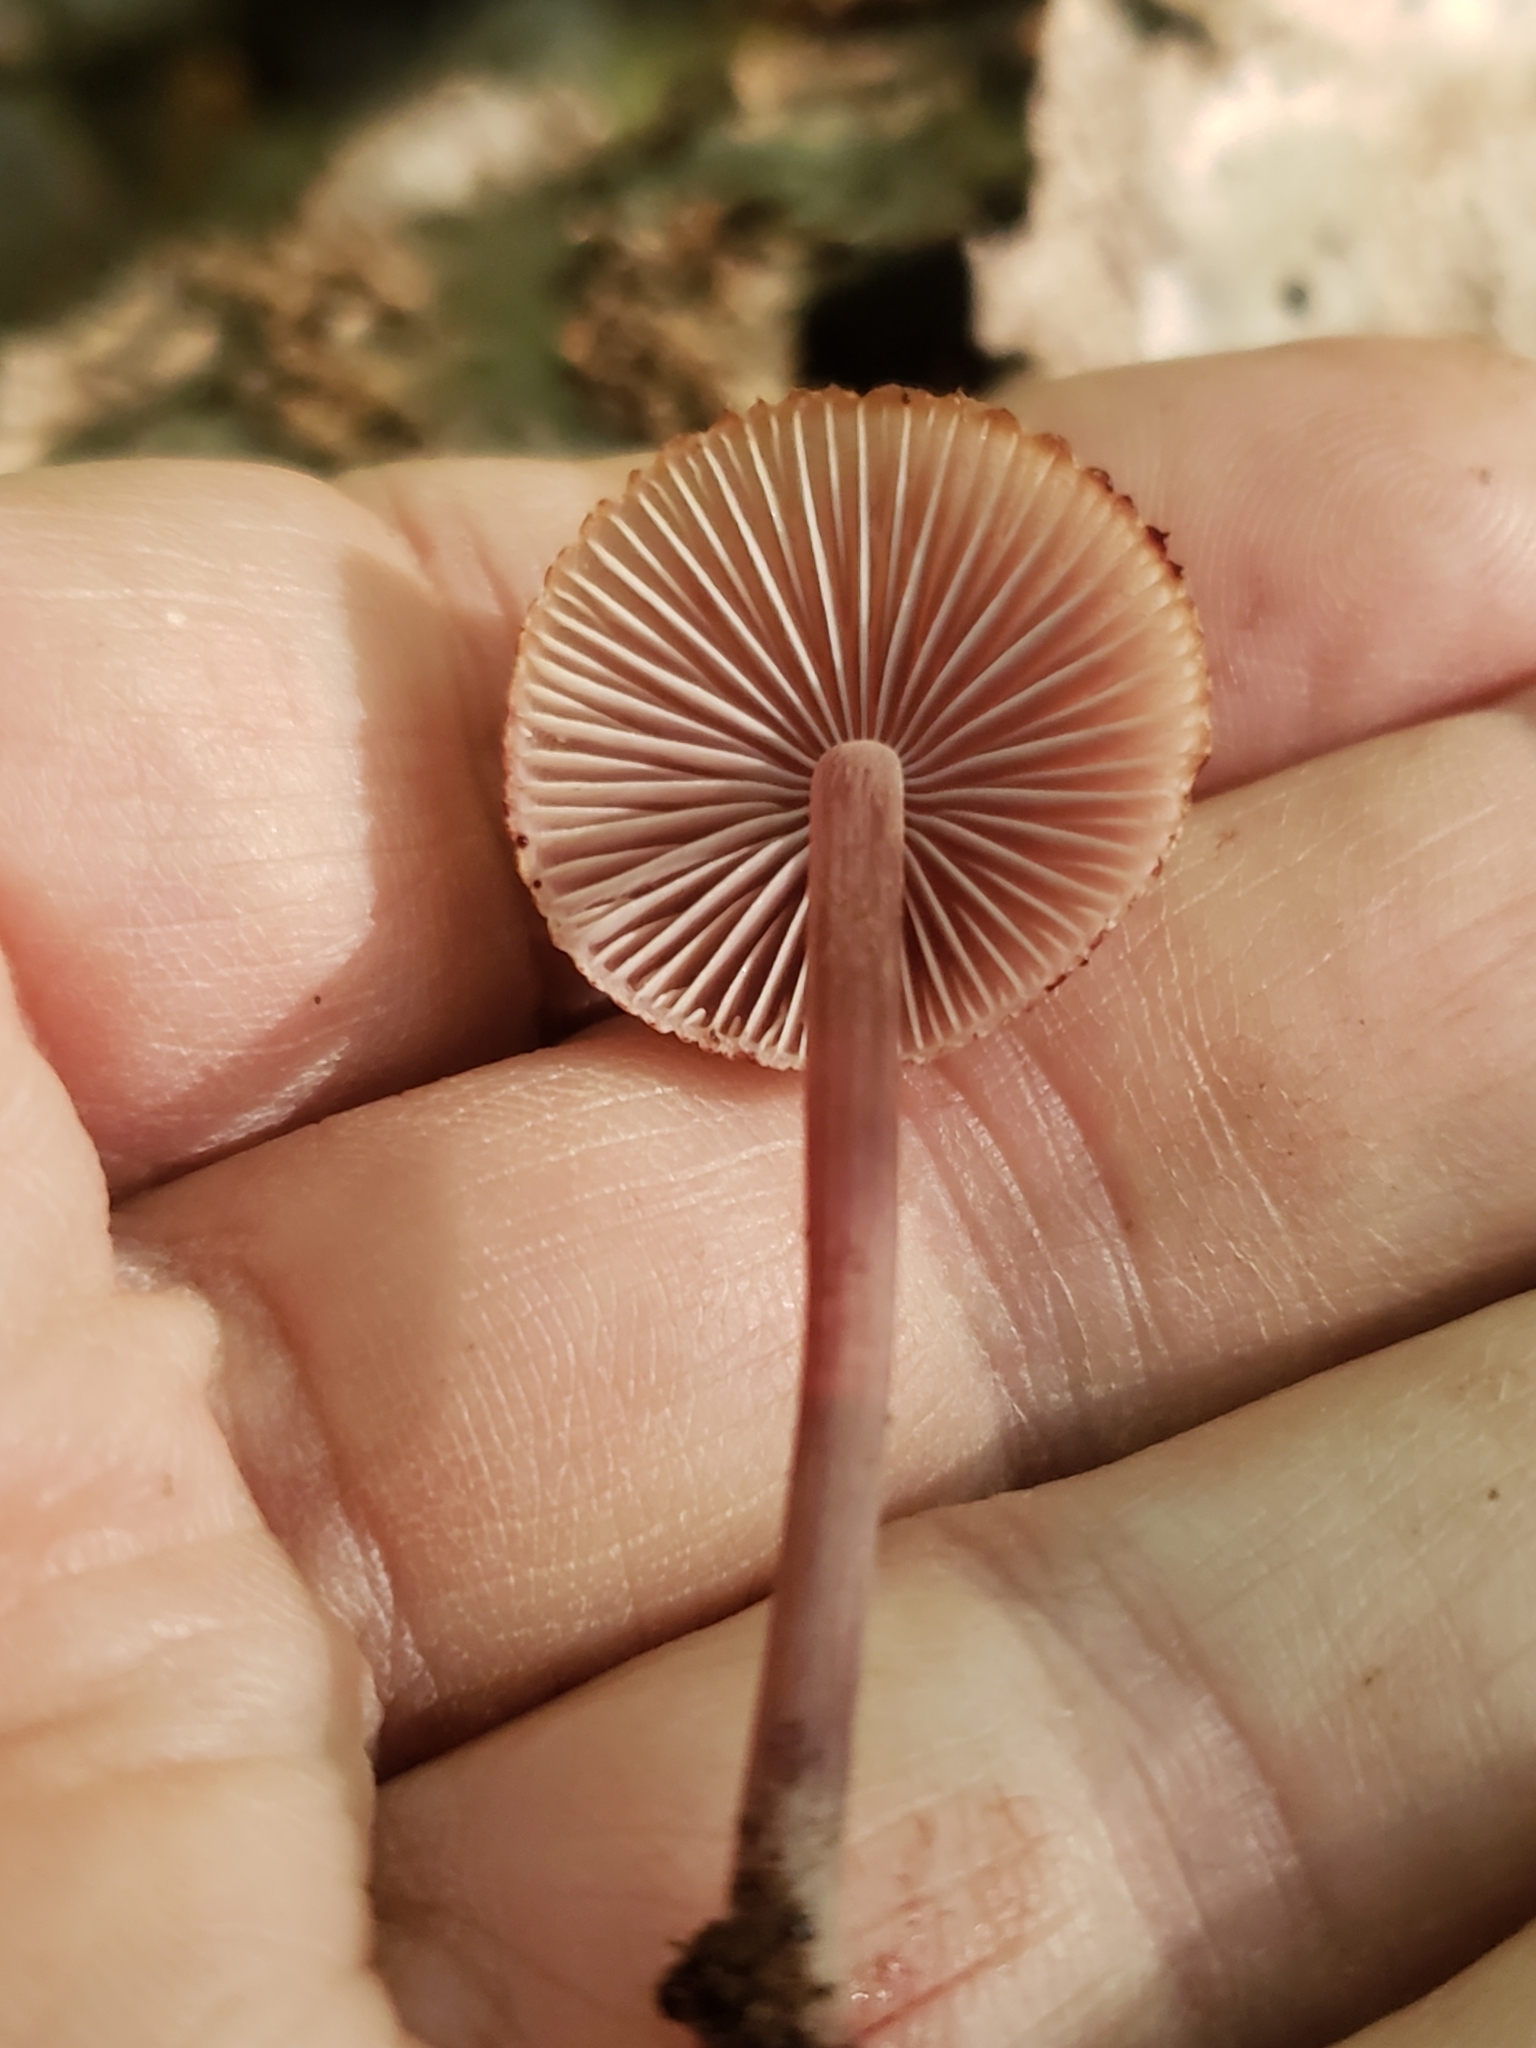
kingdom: Fungi
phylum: Basidiomycota
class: Agaricomycetes
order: Agaricales
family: Mycenaceae
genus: Mycena
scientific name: Mycena haematopus
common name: Burgundydrop bonnet
